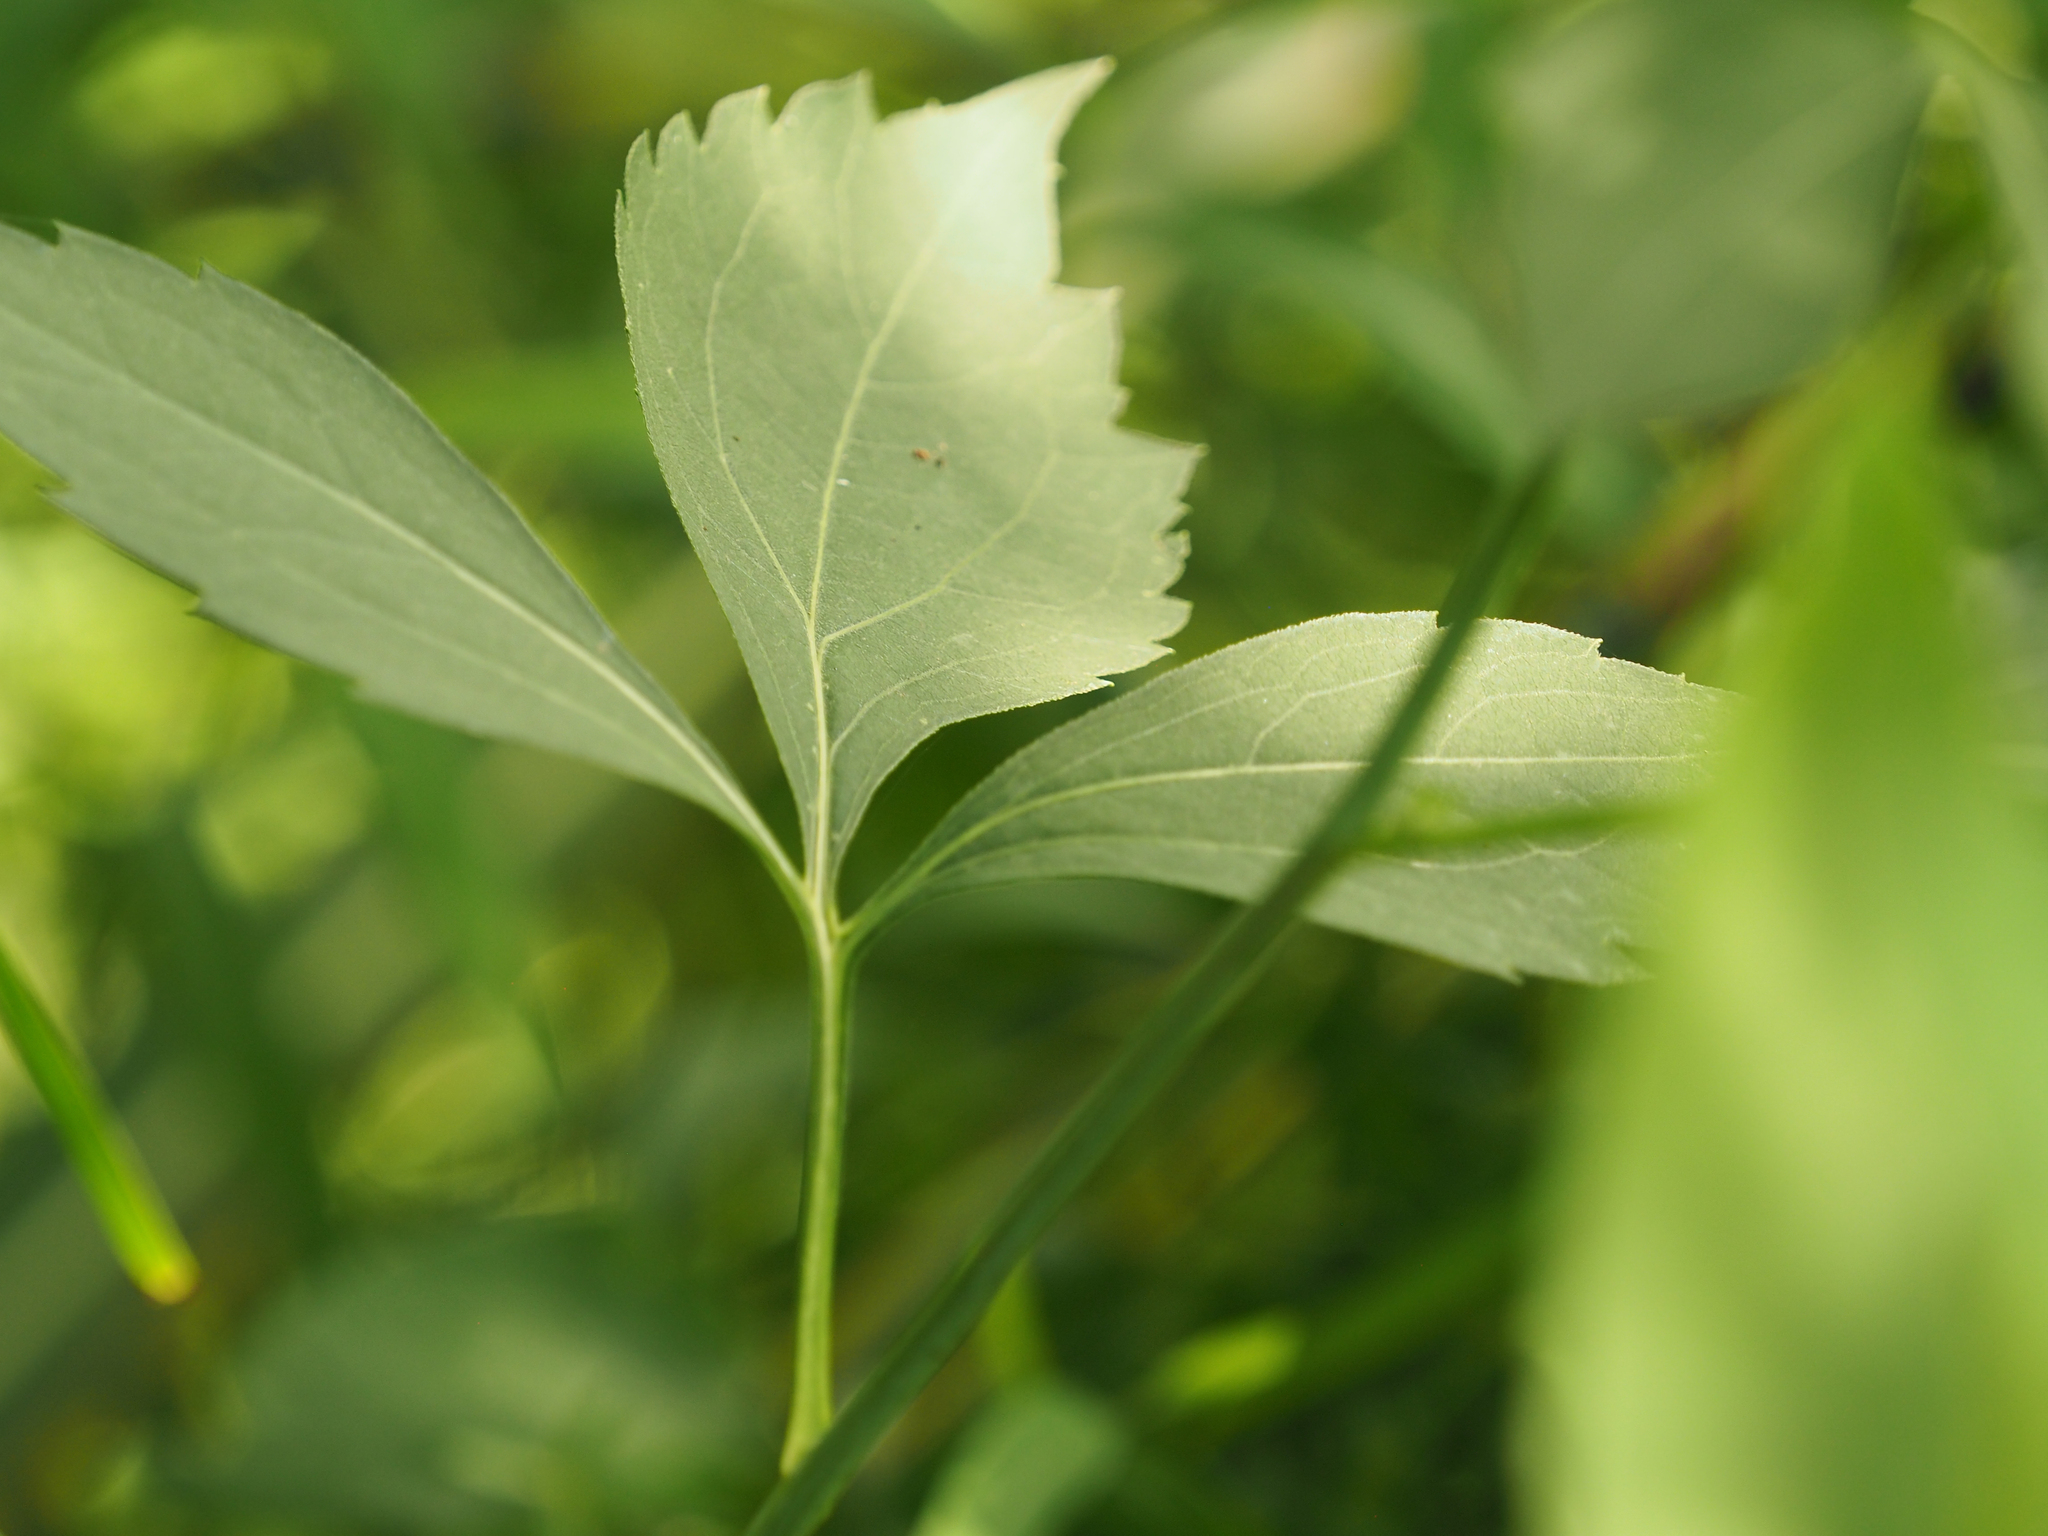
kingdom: Plantae
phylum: Tracheophyta
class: Magnoliopsida
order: Asterales
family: Asteraceae
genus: Rudbeckia
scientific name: Rudbeckia laciniata
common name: Coneflower
